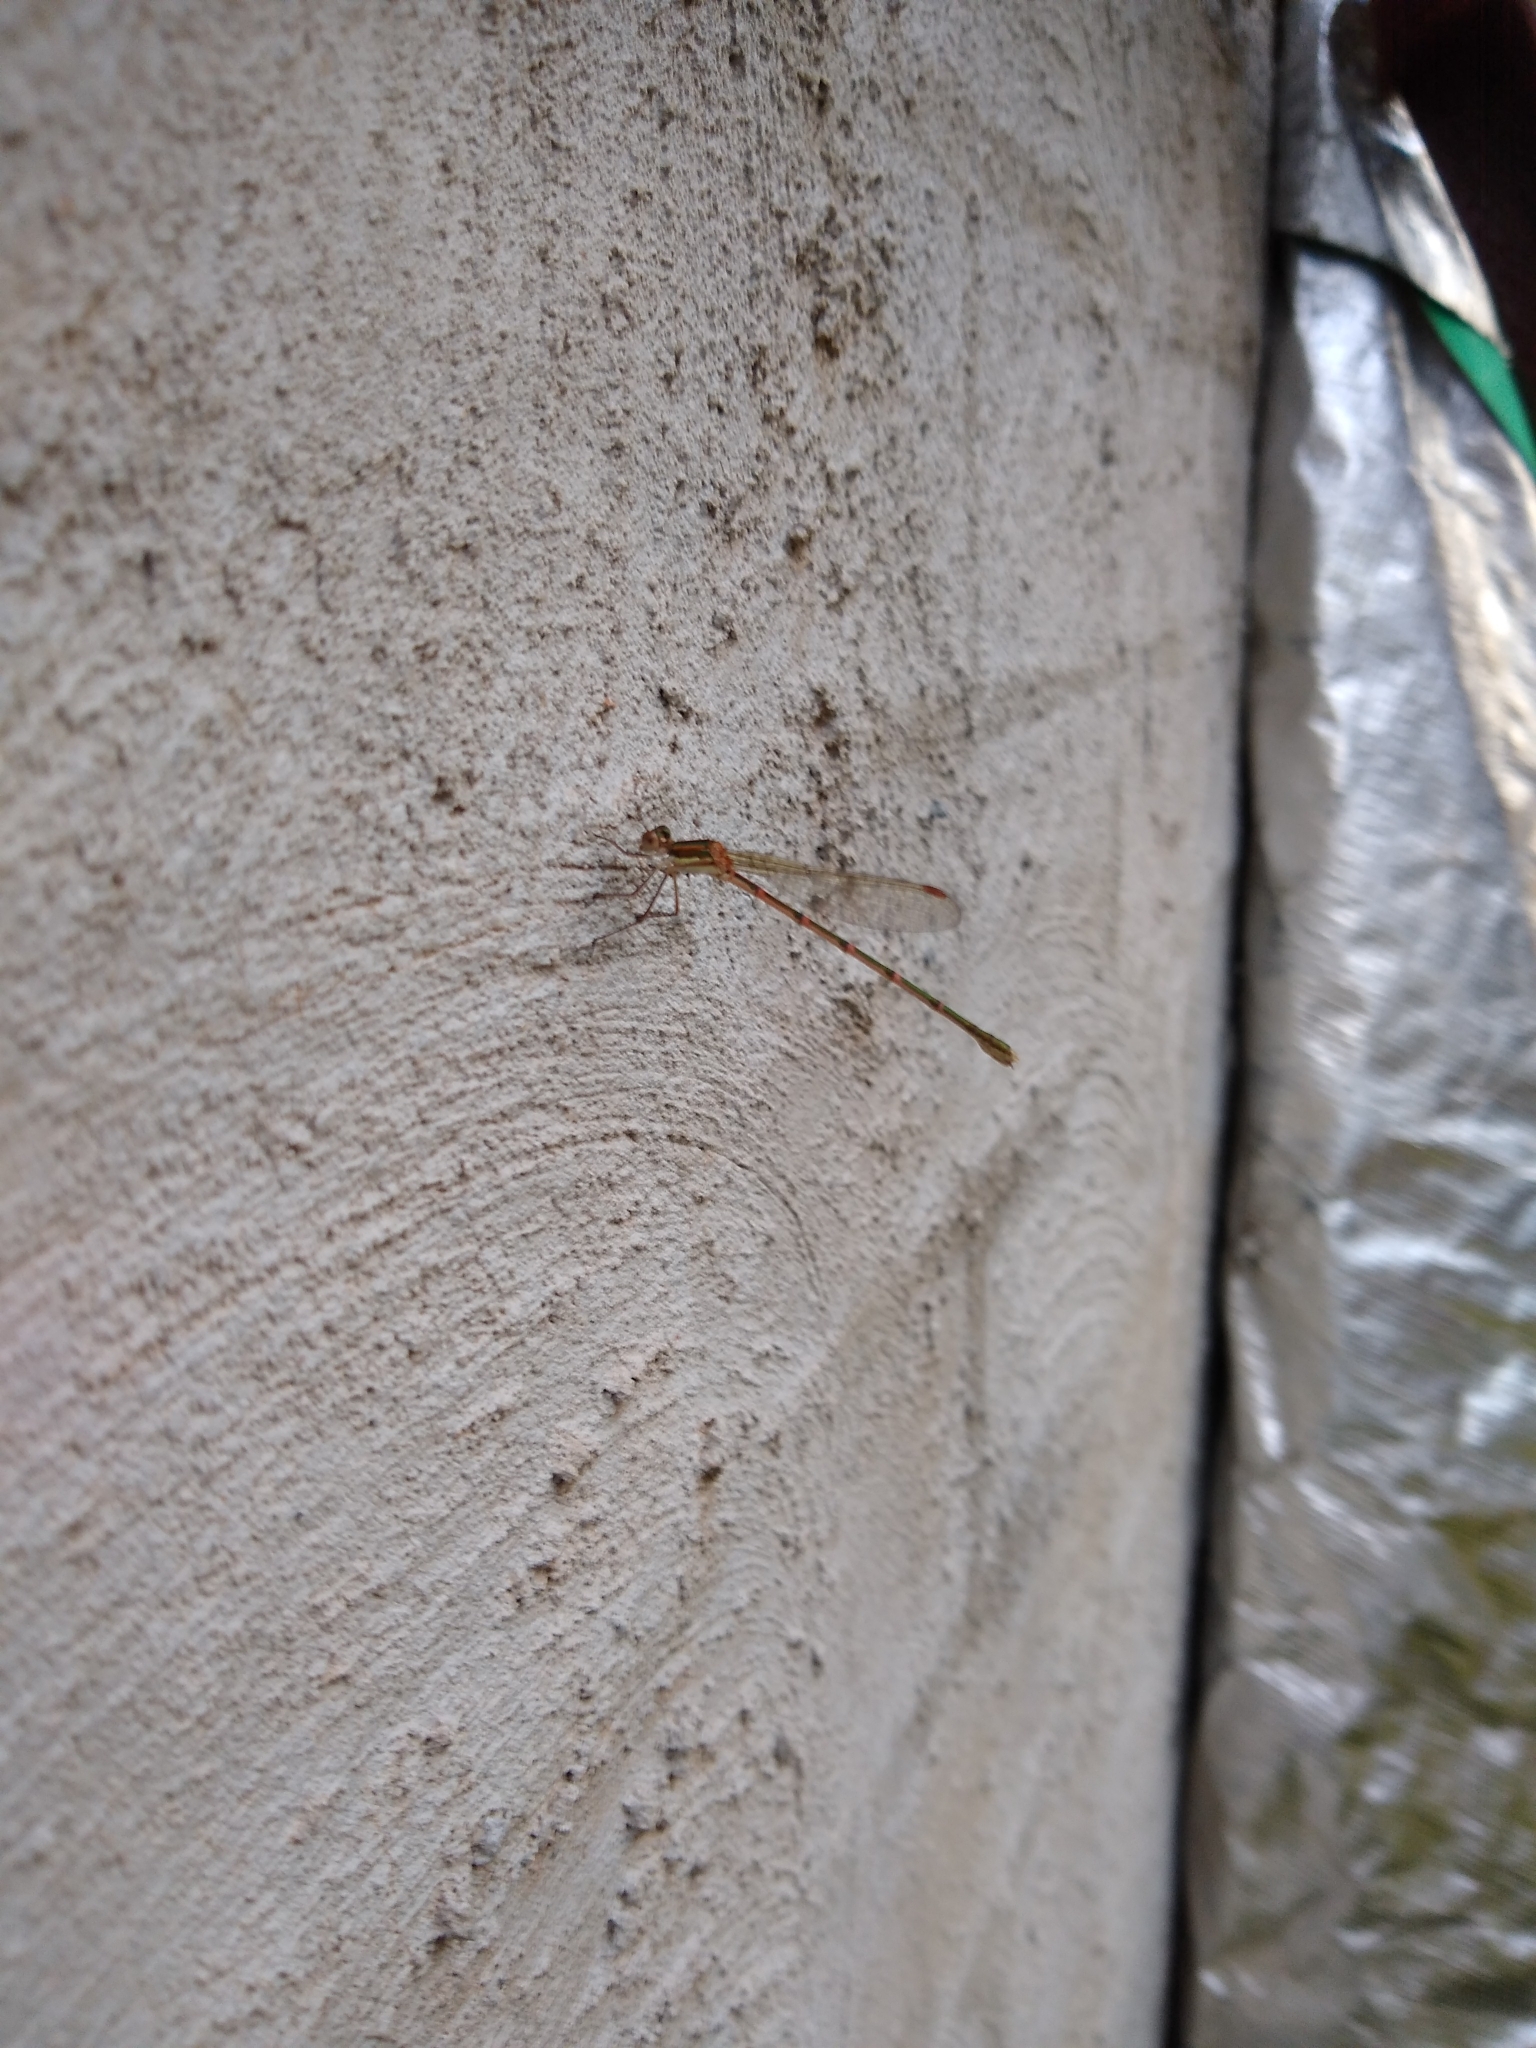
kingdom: Animalia
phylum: Arthropoda
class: Insecta
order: Odonata
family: Lestidae
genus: Austrolestes
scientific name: Austrolestes analis
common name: Slender ringtail
